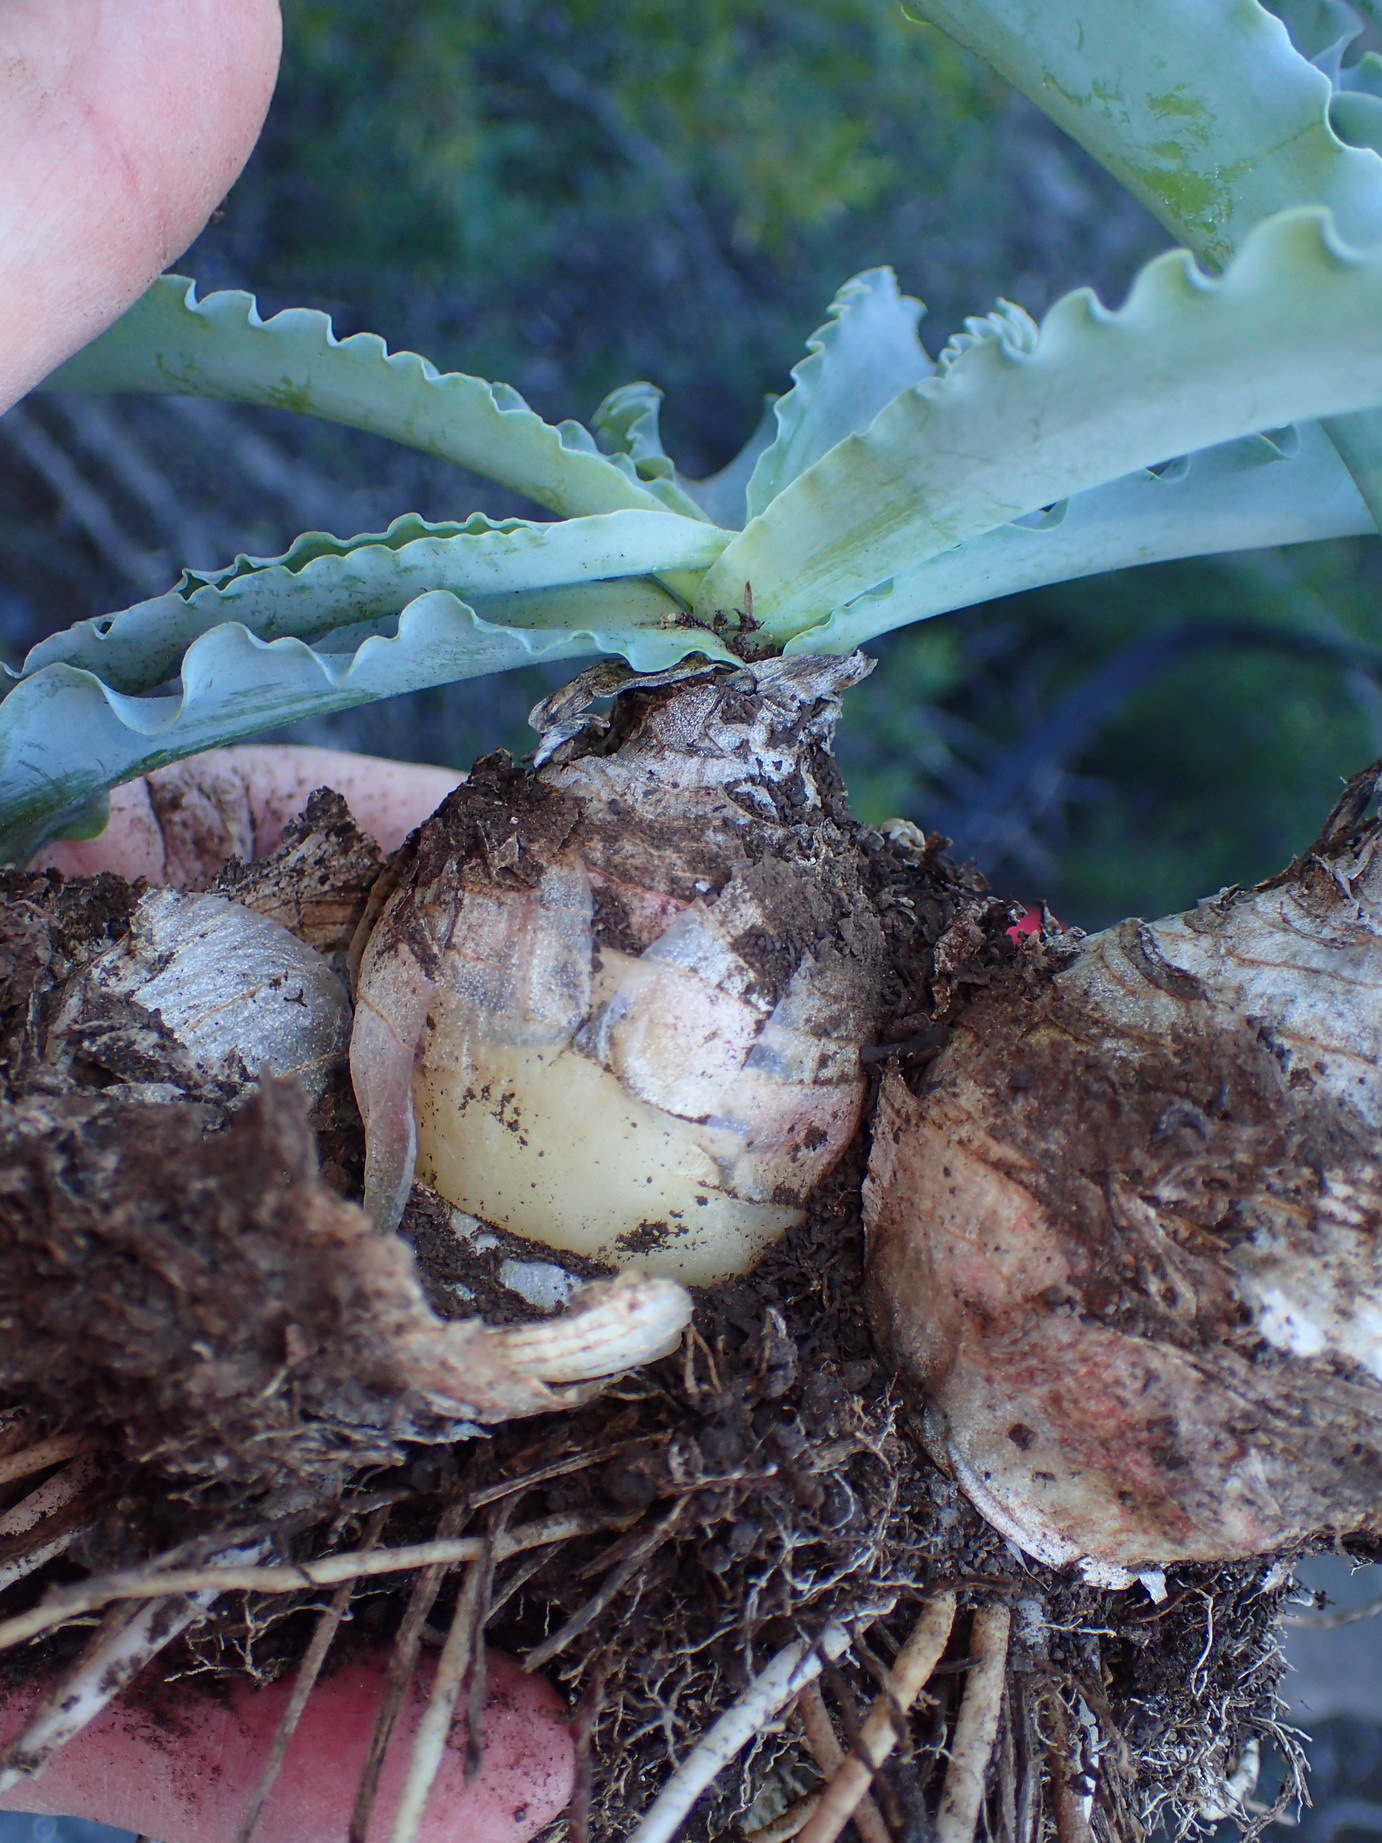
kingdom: Plantae
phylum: Tracheophyta
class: Liliopsida
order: Asparagales
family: Asparagaceae
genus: Veltheimia
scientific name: Veltheimia capensis
